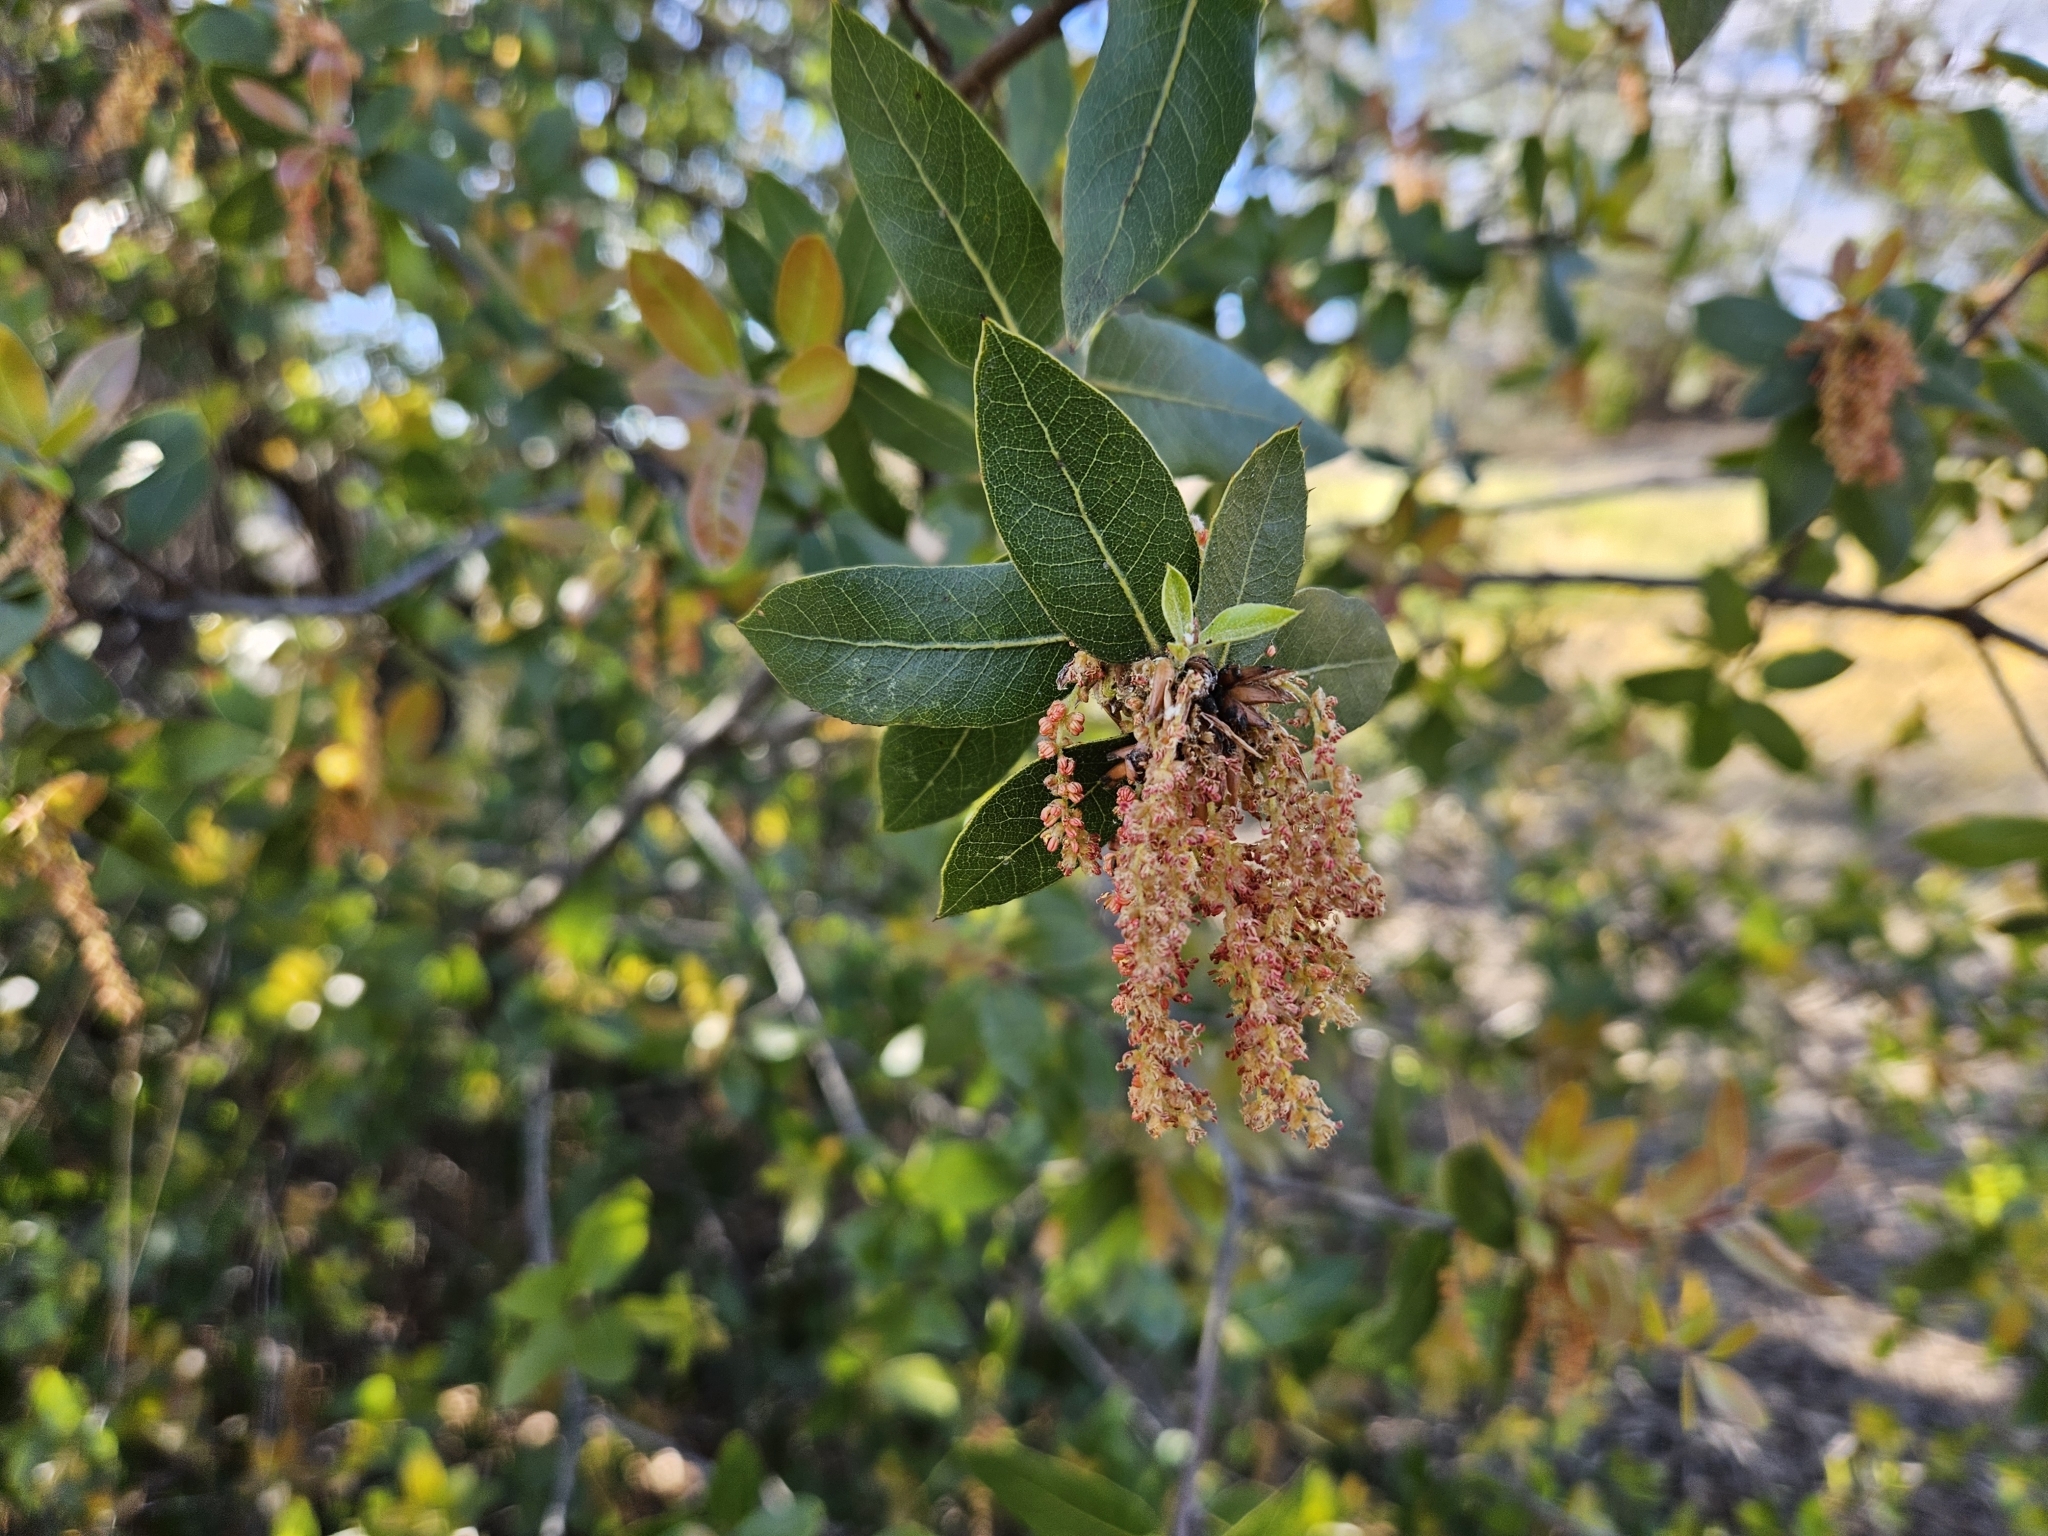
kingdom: Plantae
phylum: Tracheophyta
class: Magnoliopsida
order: Fagales
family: Fagaceae
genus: Quercus
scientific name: Quercus wislizeni
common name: Interior live oak
